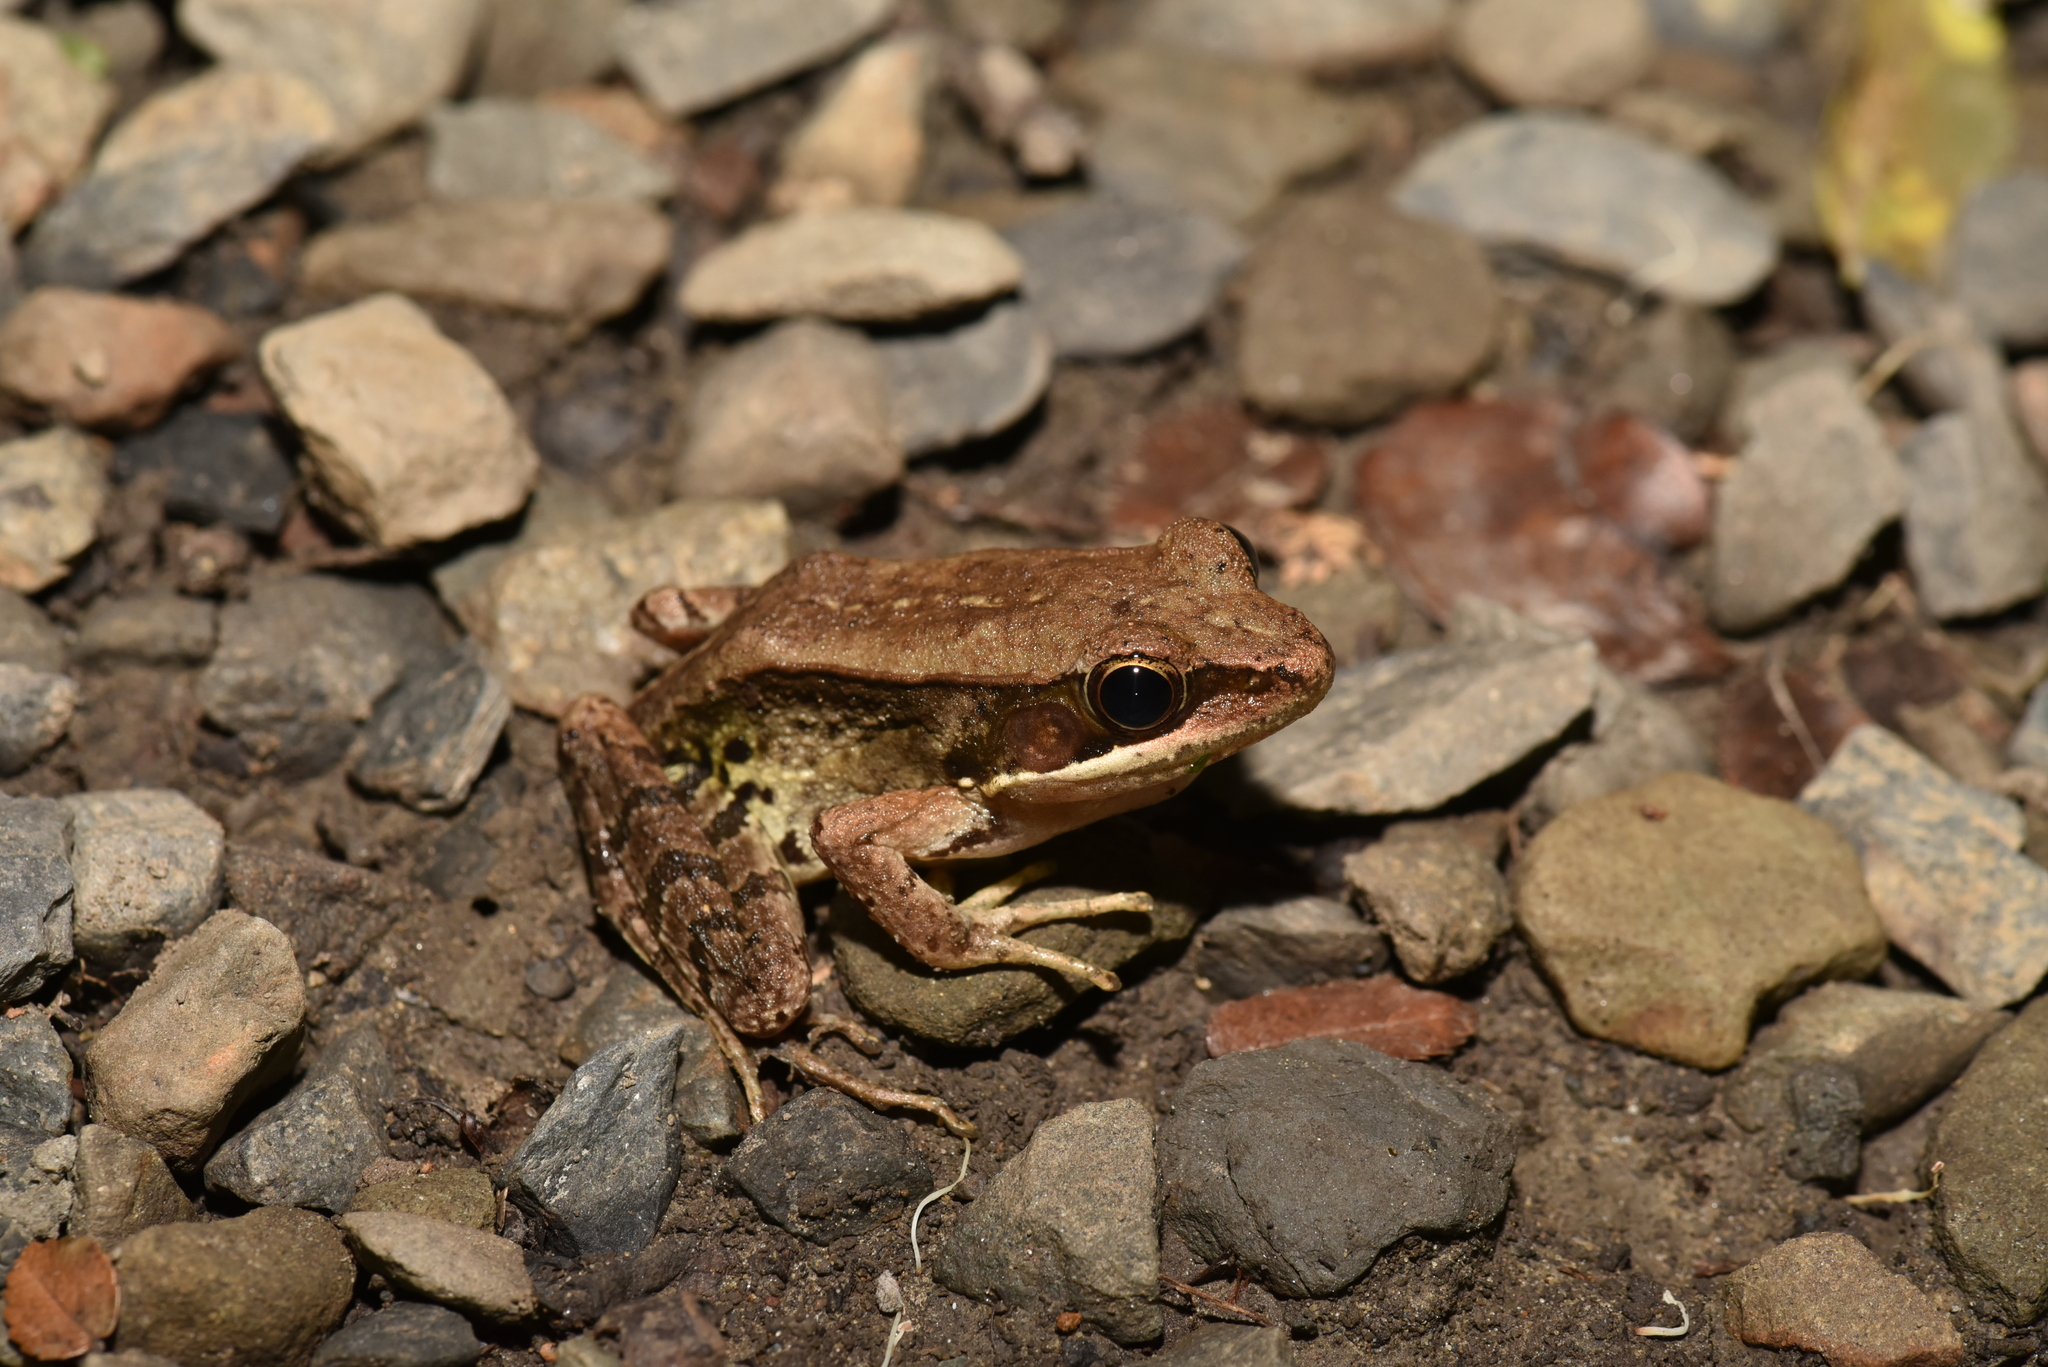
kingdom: Animalia
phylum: Chordata
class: Amphibia
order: Anura
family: Ranidae
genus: Nidirana
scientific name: Nidirana adenopleura
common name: Olive frog
